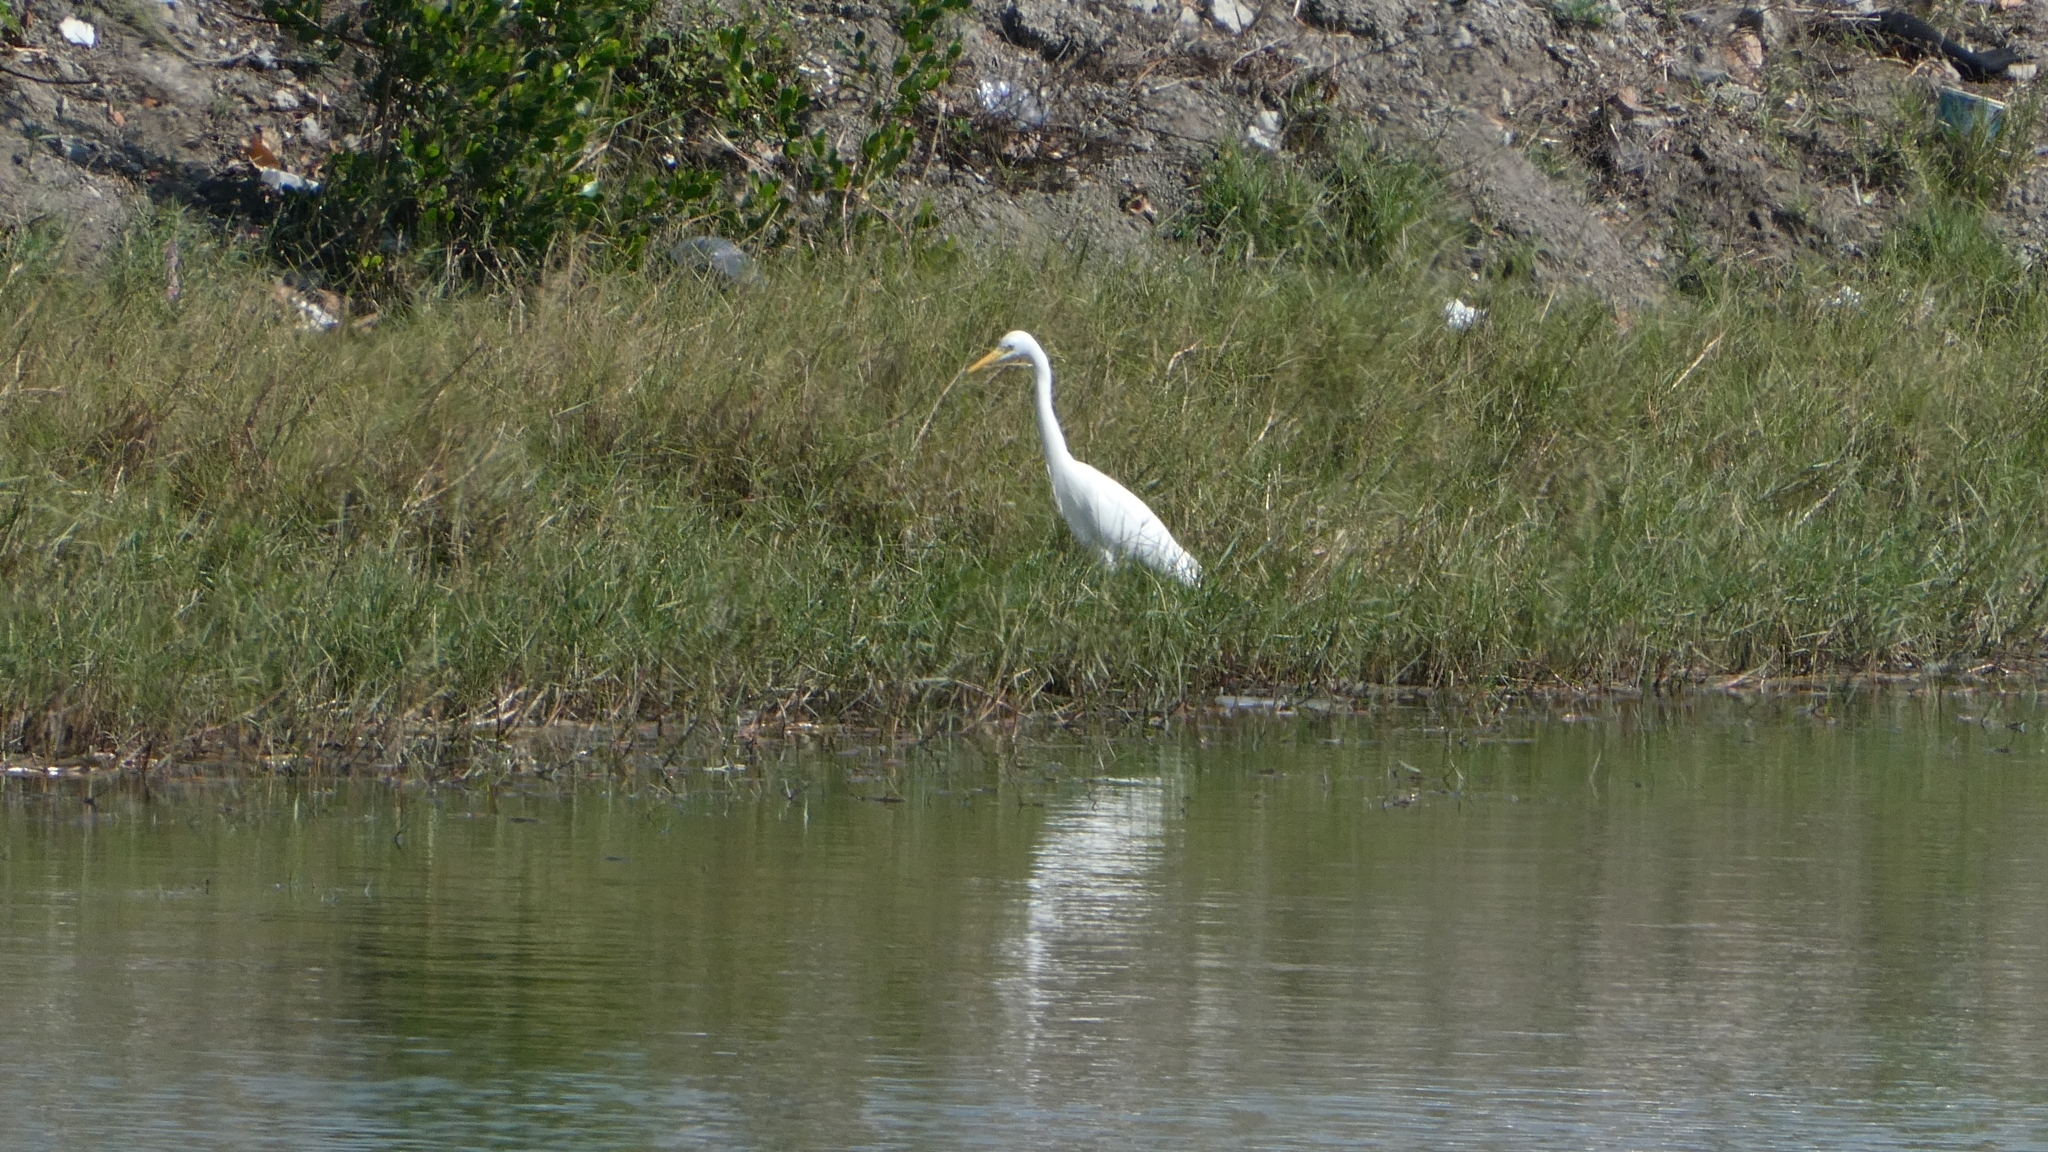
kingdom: Animalia
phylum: Chordata
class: Aves
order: Pelecaniformes
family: Ardeidae
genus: Egretta
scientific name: Egretta intermedia
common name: Intermediate egret
